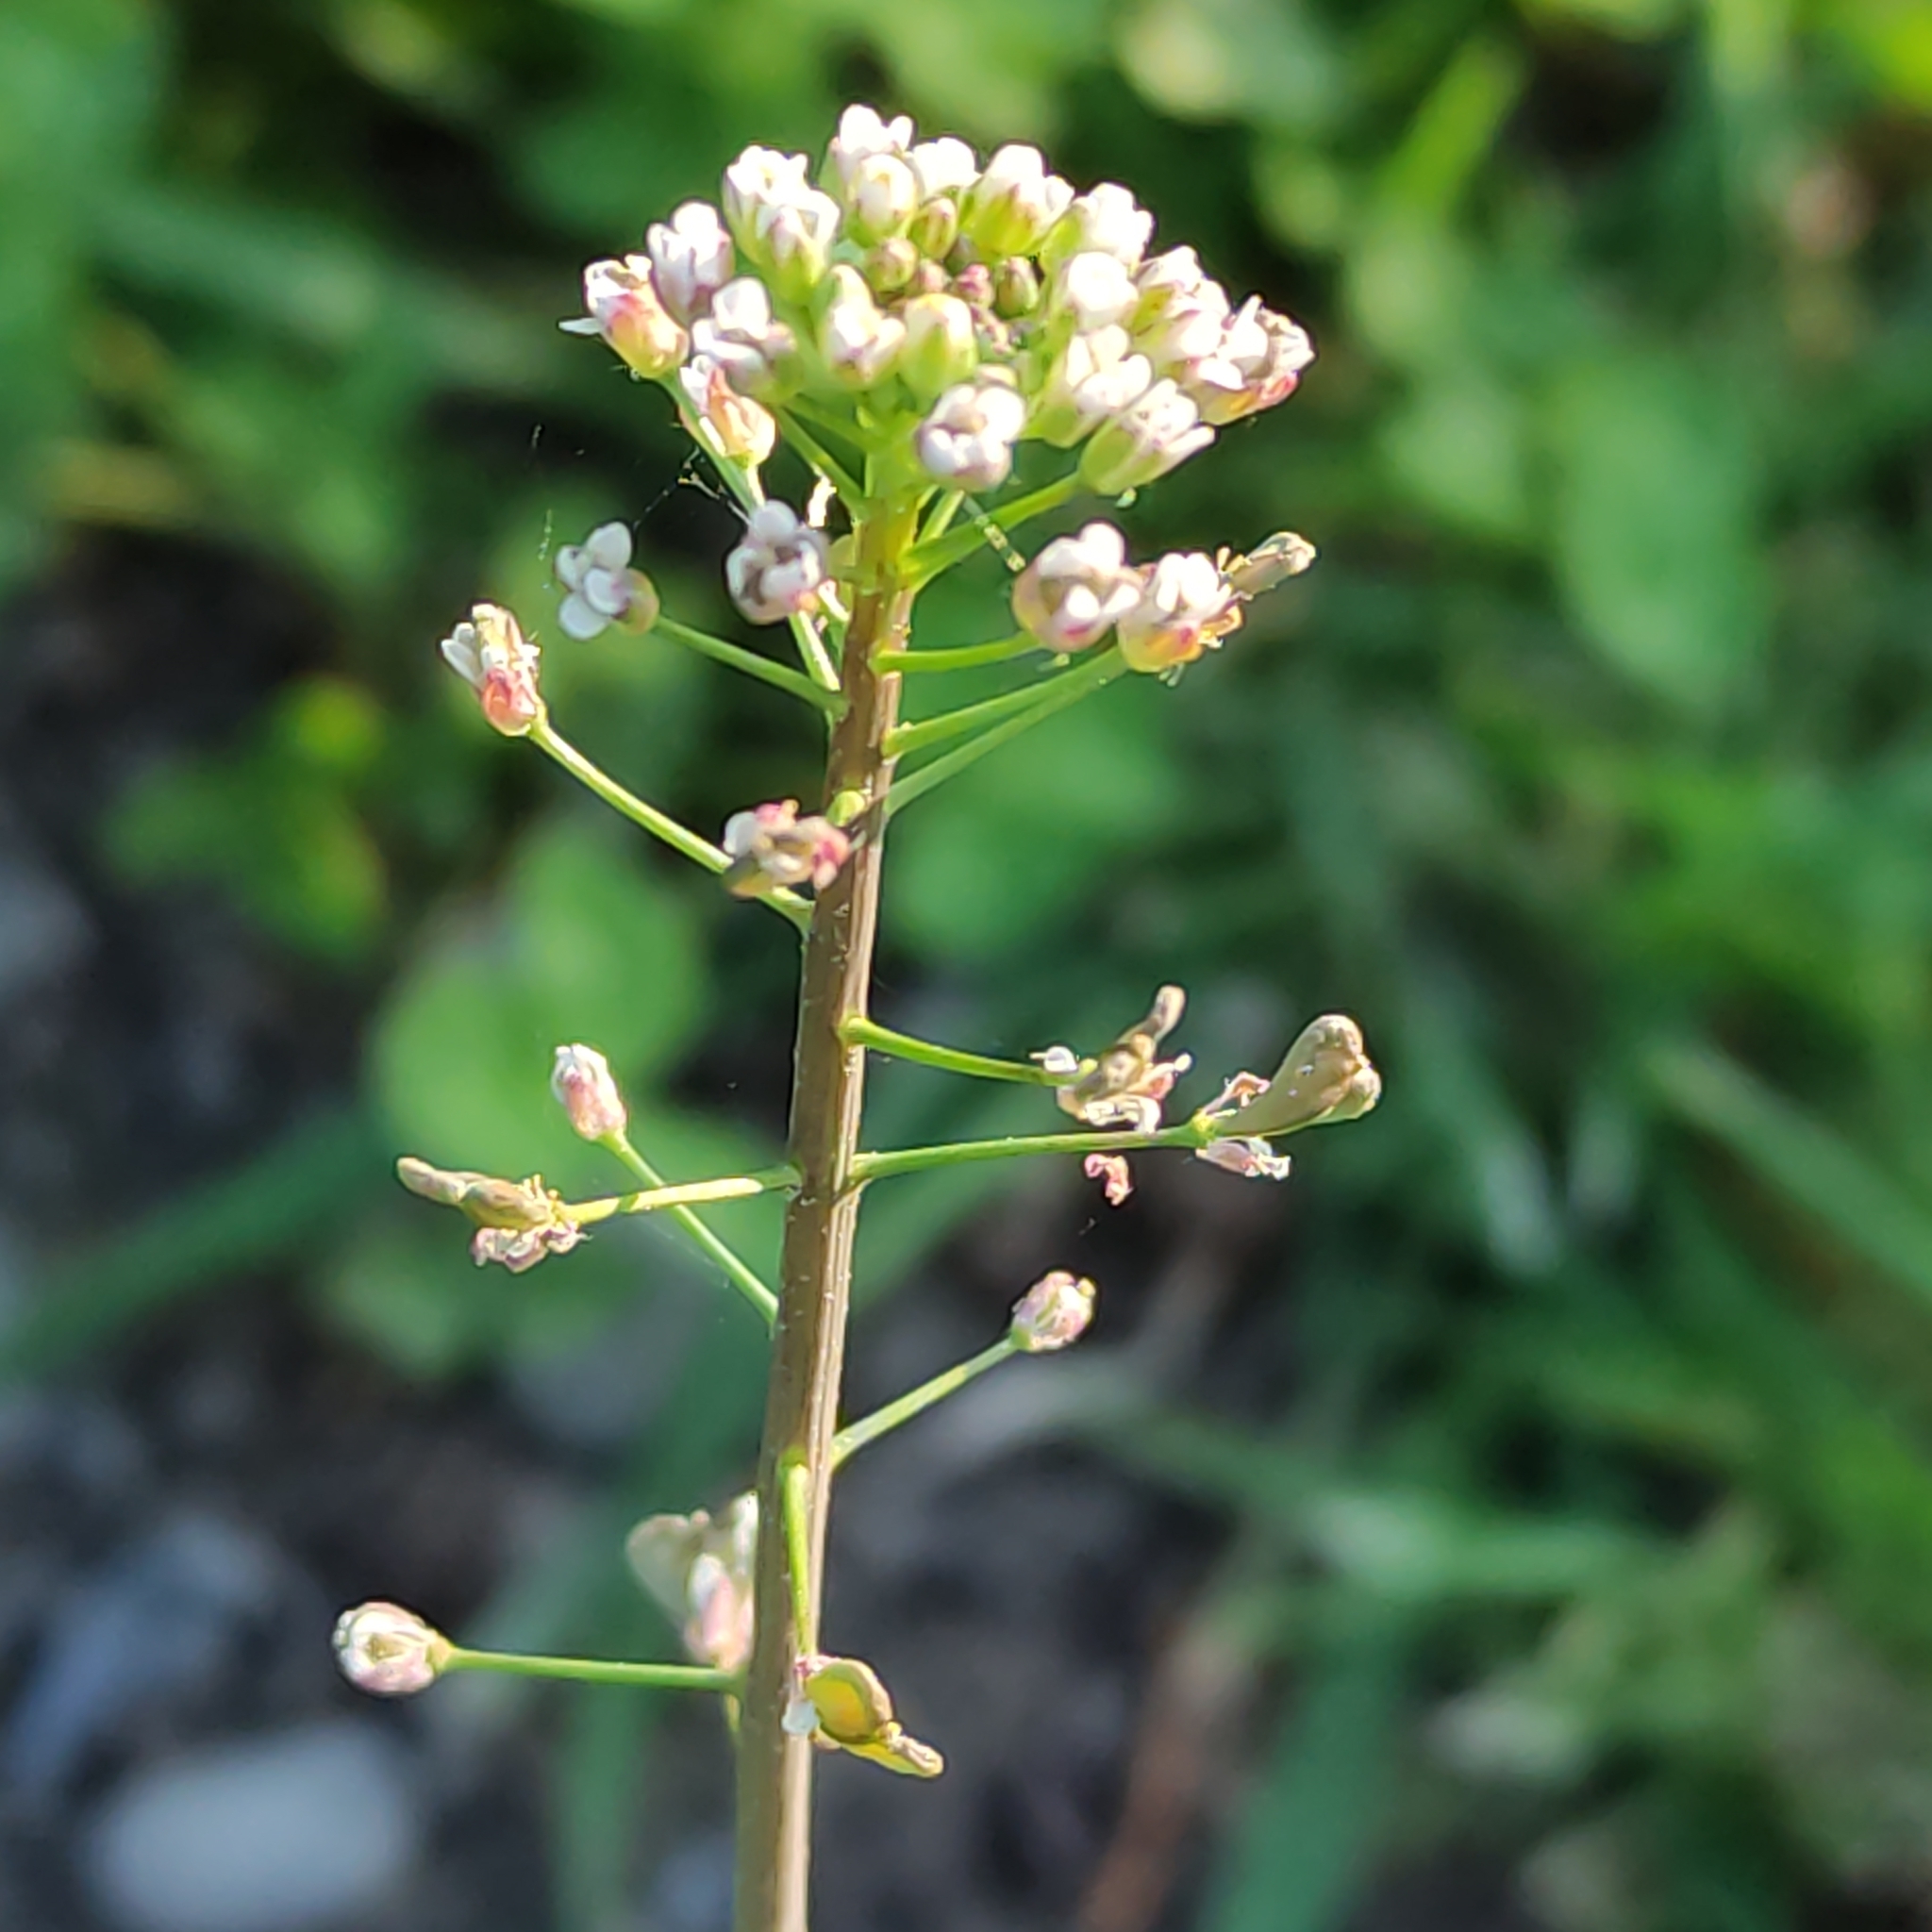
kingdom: Plantae
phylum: Tracheophyta
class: Magnoliopsida
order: Brassicales
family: Brassicaceae
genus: Capsella
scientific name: Capsella bursa-pastoris
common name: Shepherd's purse
